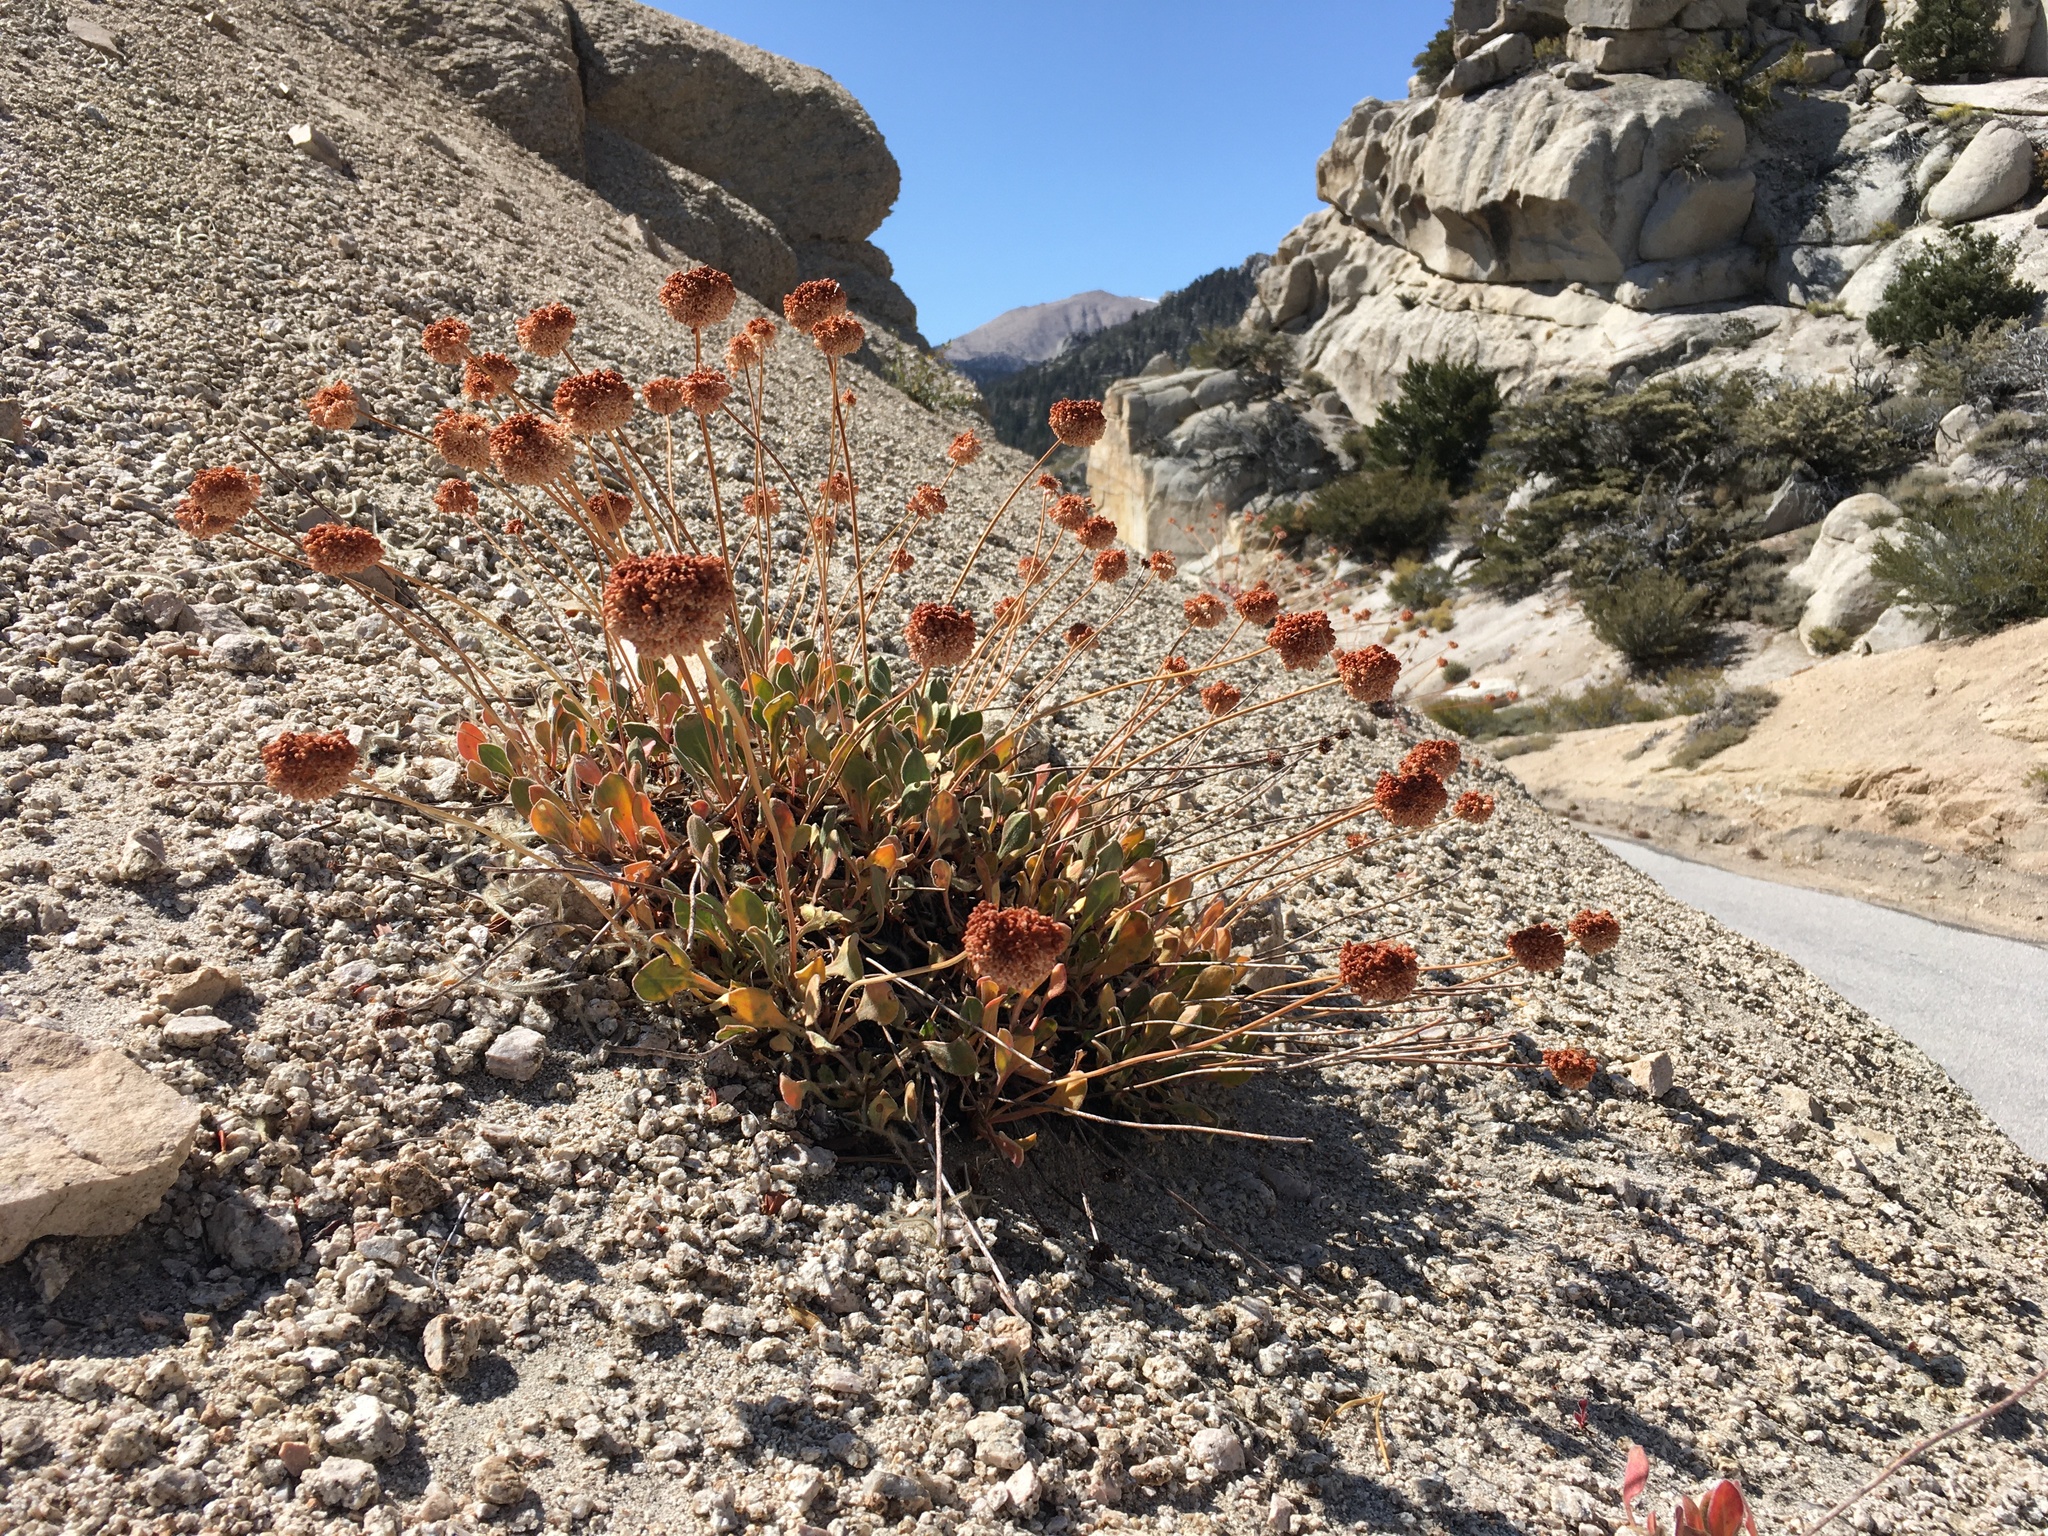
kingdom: Plantae
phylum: Tracheophyta
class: Magnoliopsida
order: Caryophyllales
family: Polygonaceae
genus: Eriogonum
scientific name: Eriogonum latens
